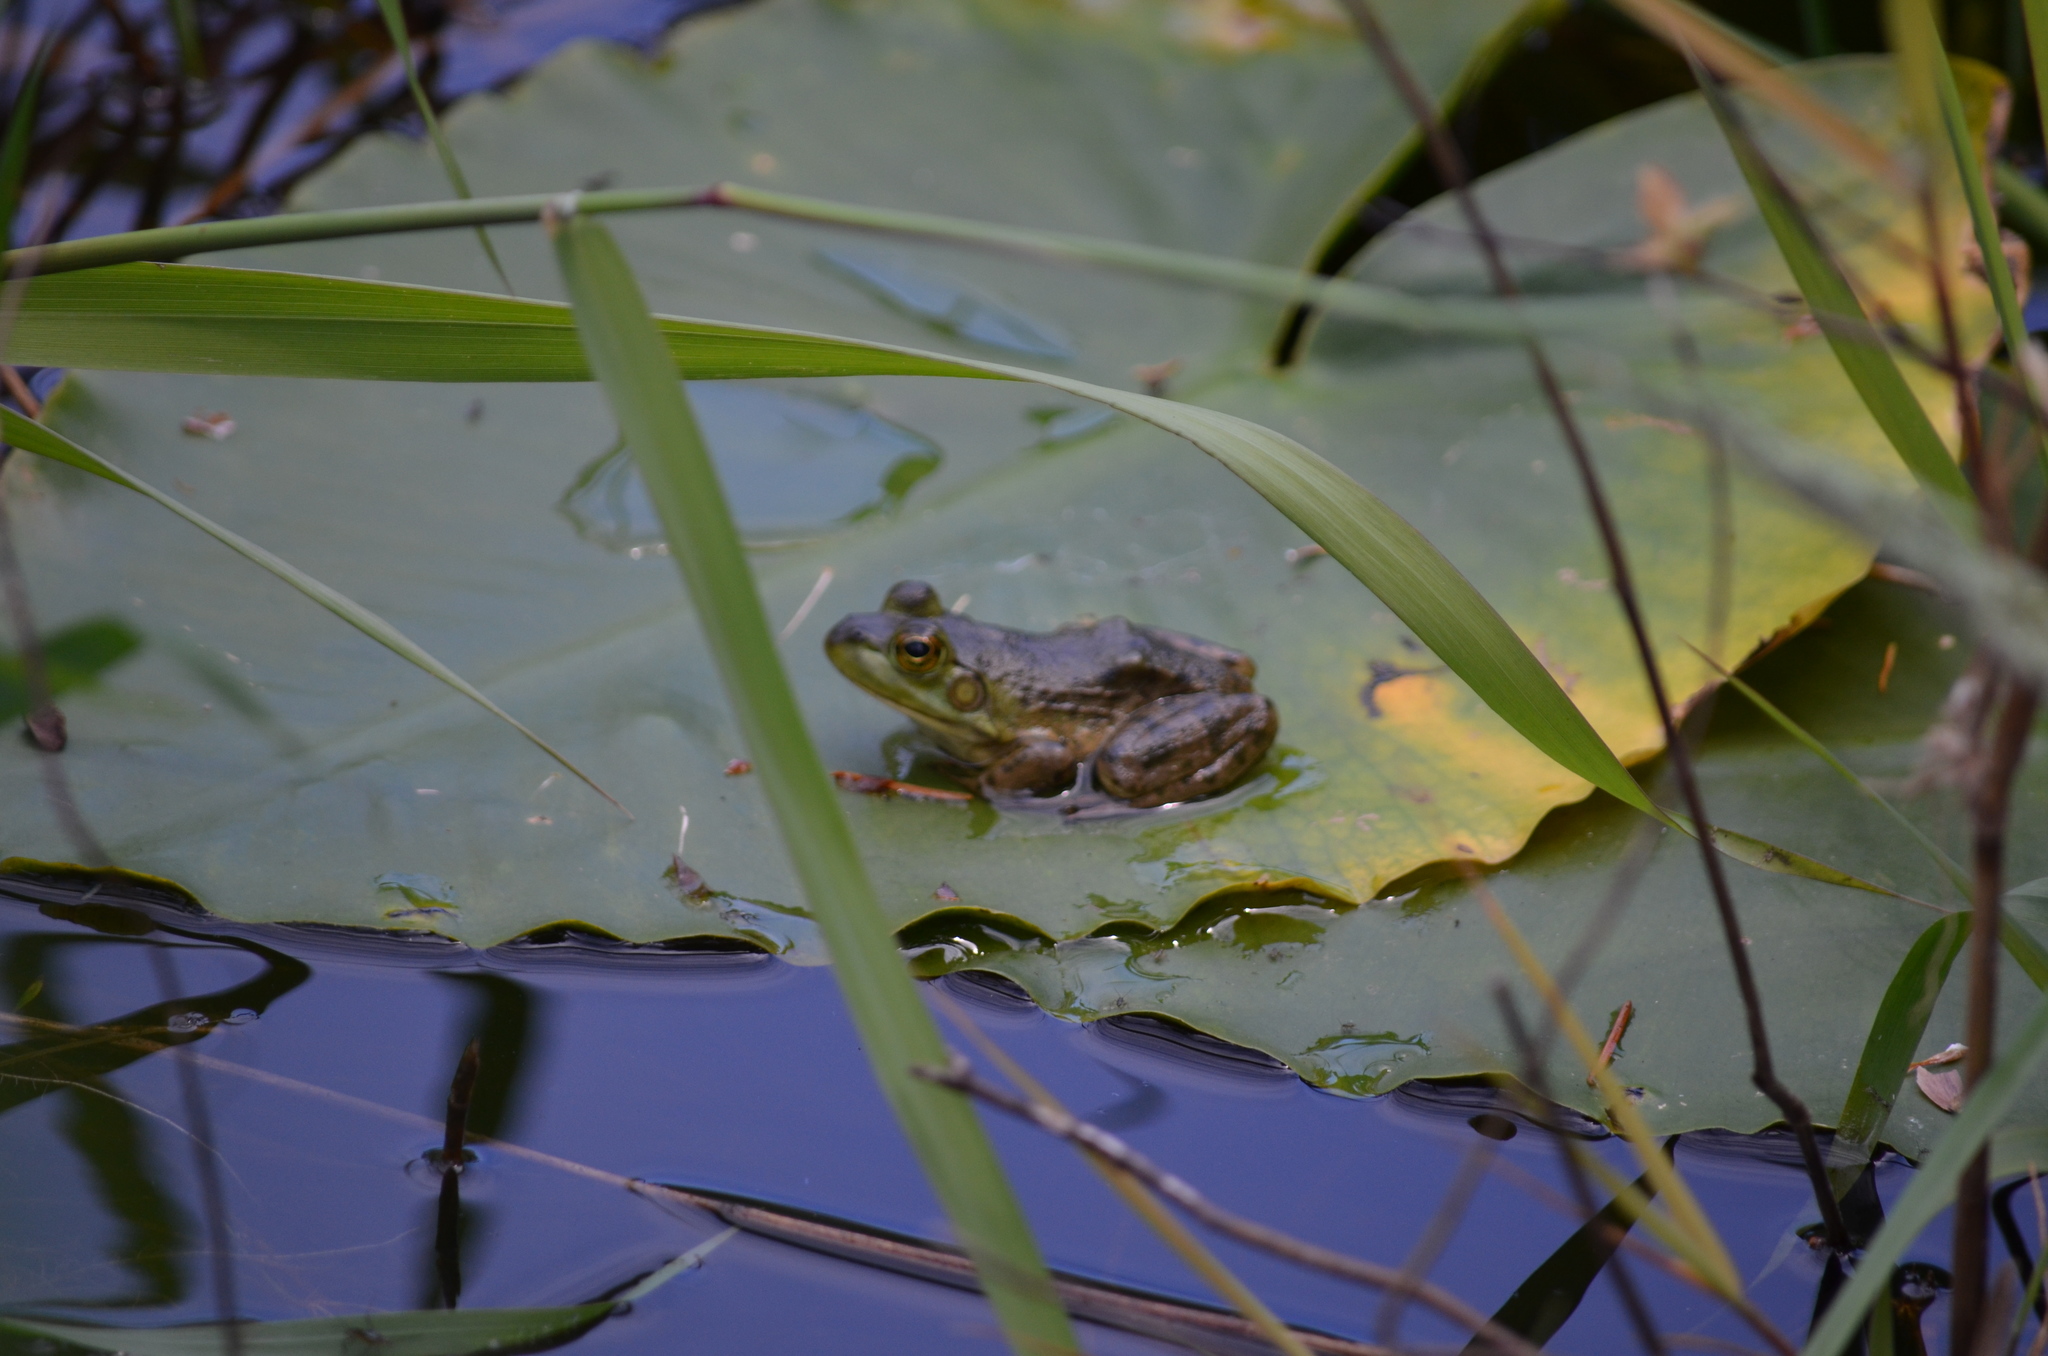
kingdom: Animalia
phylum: Chordata
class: Amphibia
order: Anura
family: Ranidae
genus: Lithobates
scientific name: Lithobates clamitans
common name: Green frog
